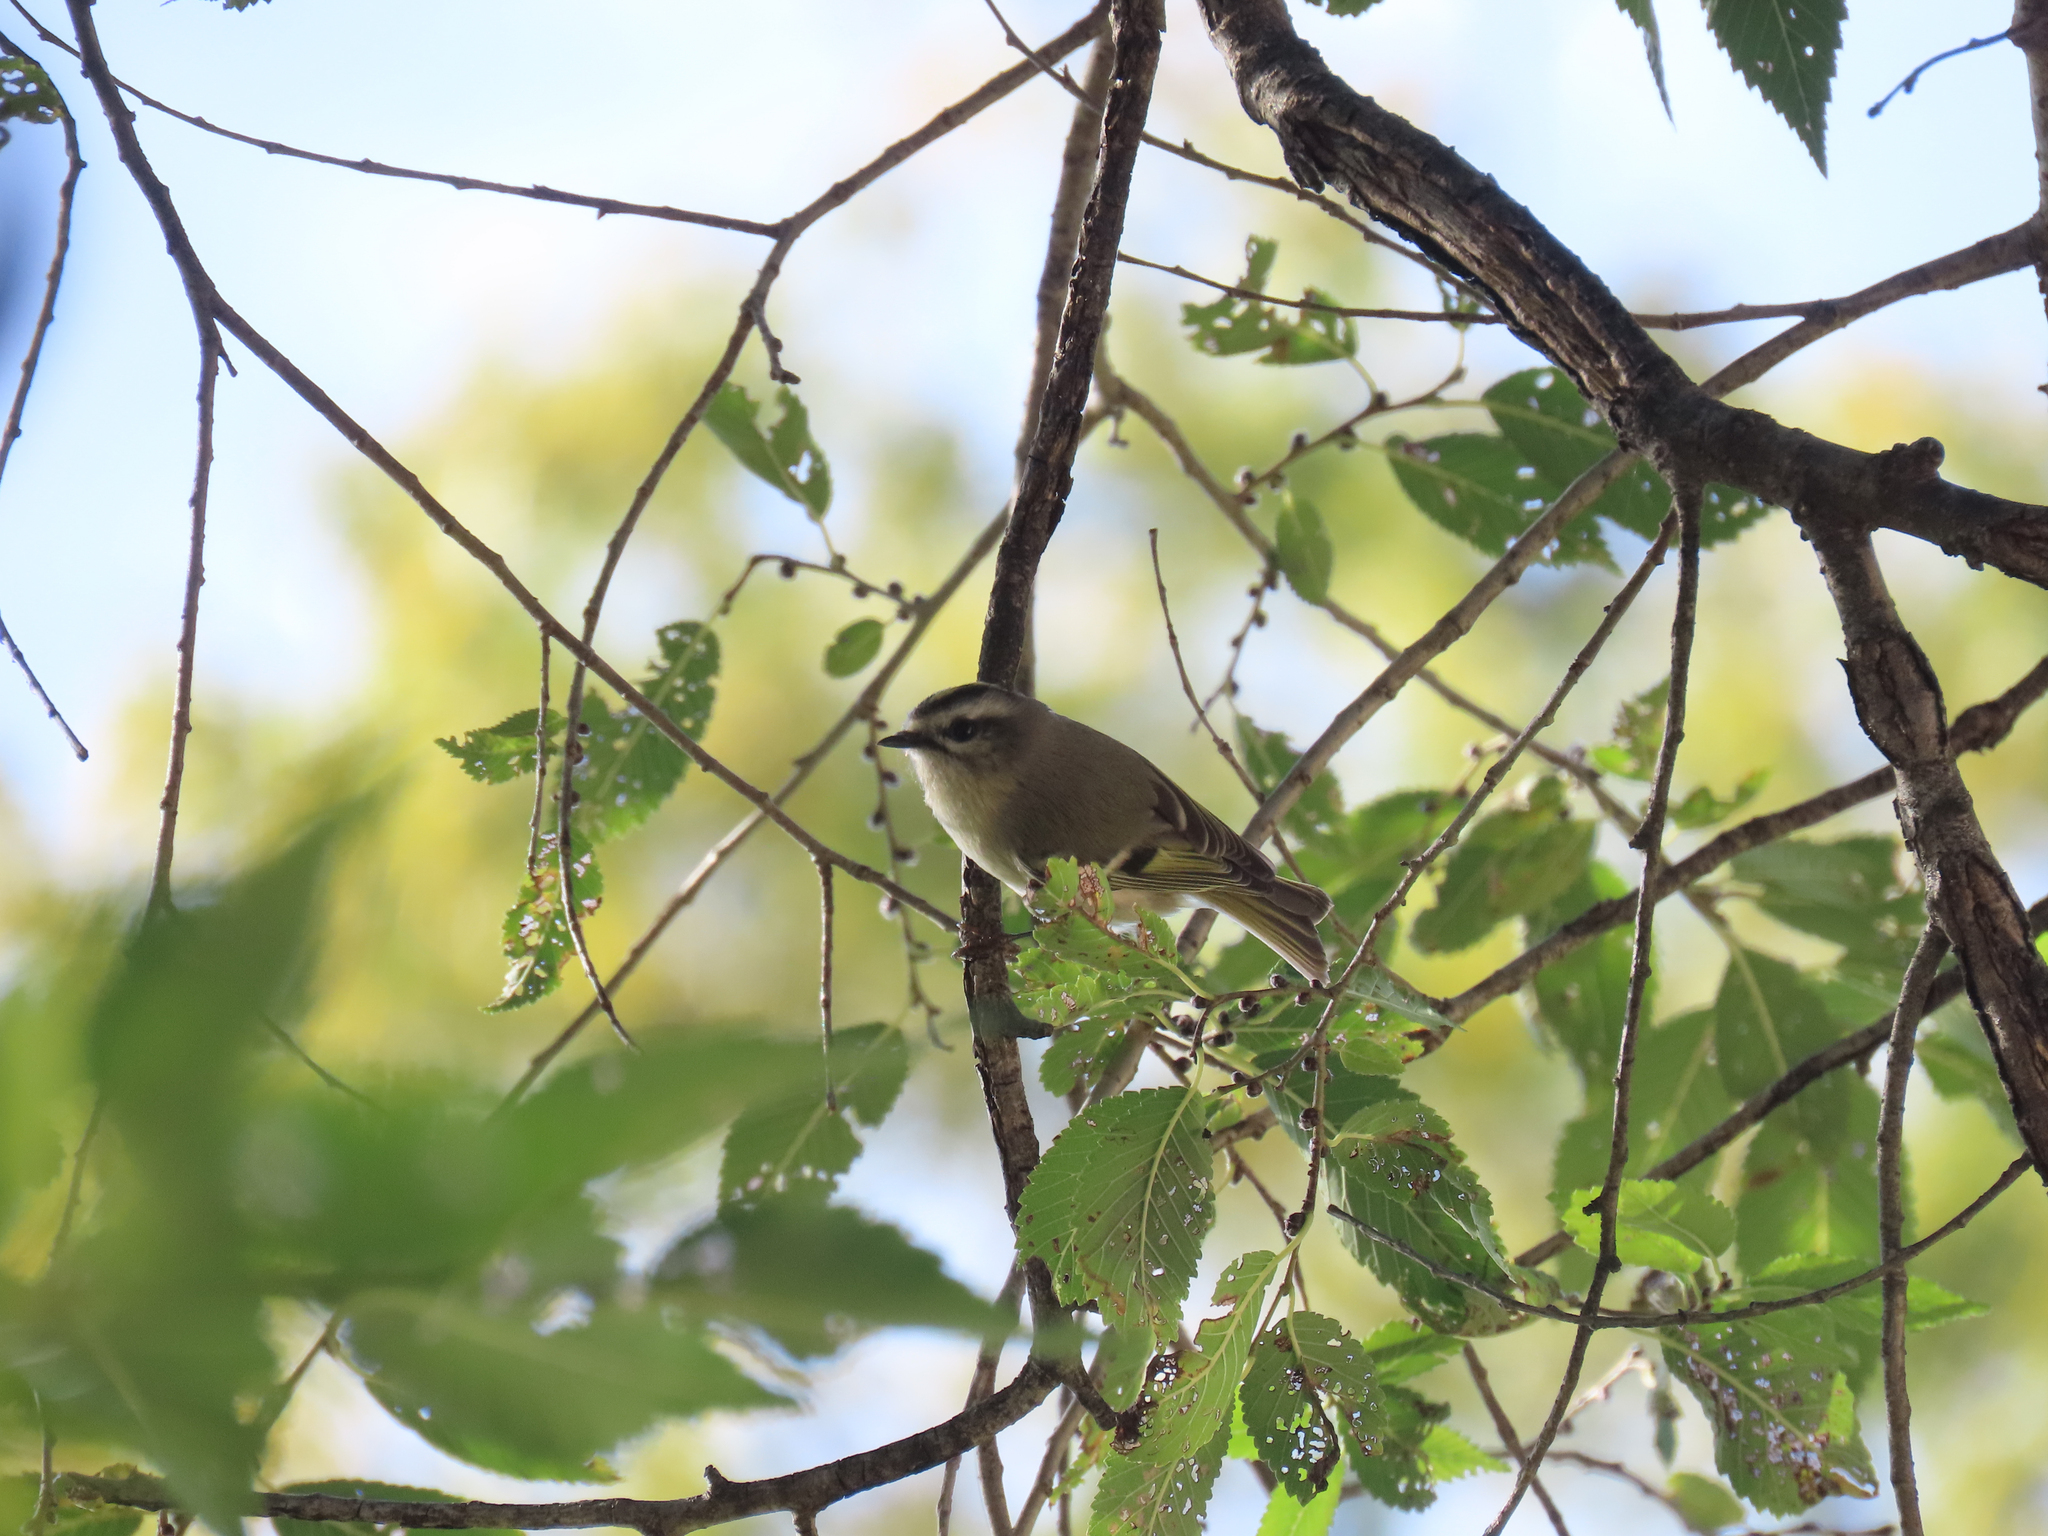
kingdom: Animalia
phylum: Chordata
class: Aves
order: Passeriformes
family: Regulidae
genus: Regulus
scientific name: Regulus satrapa
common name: Golden-crowned kinglet
